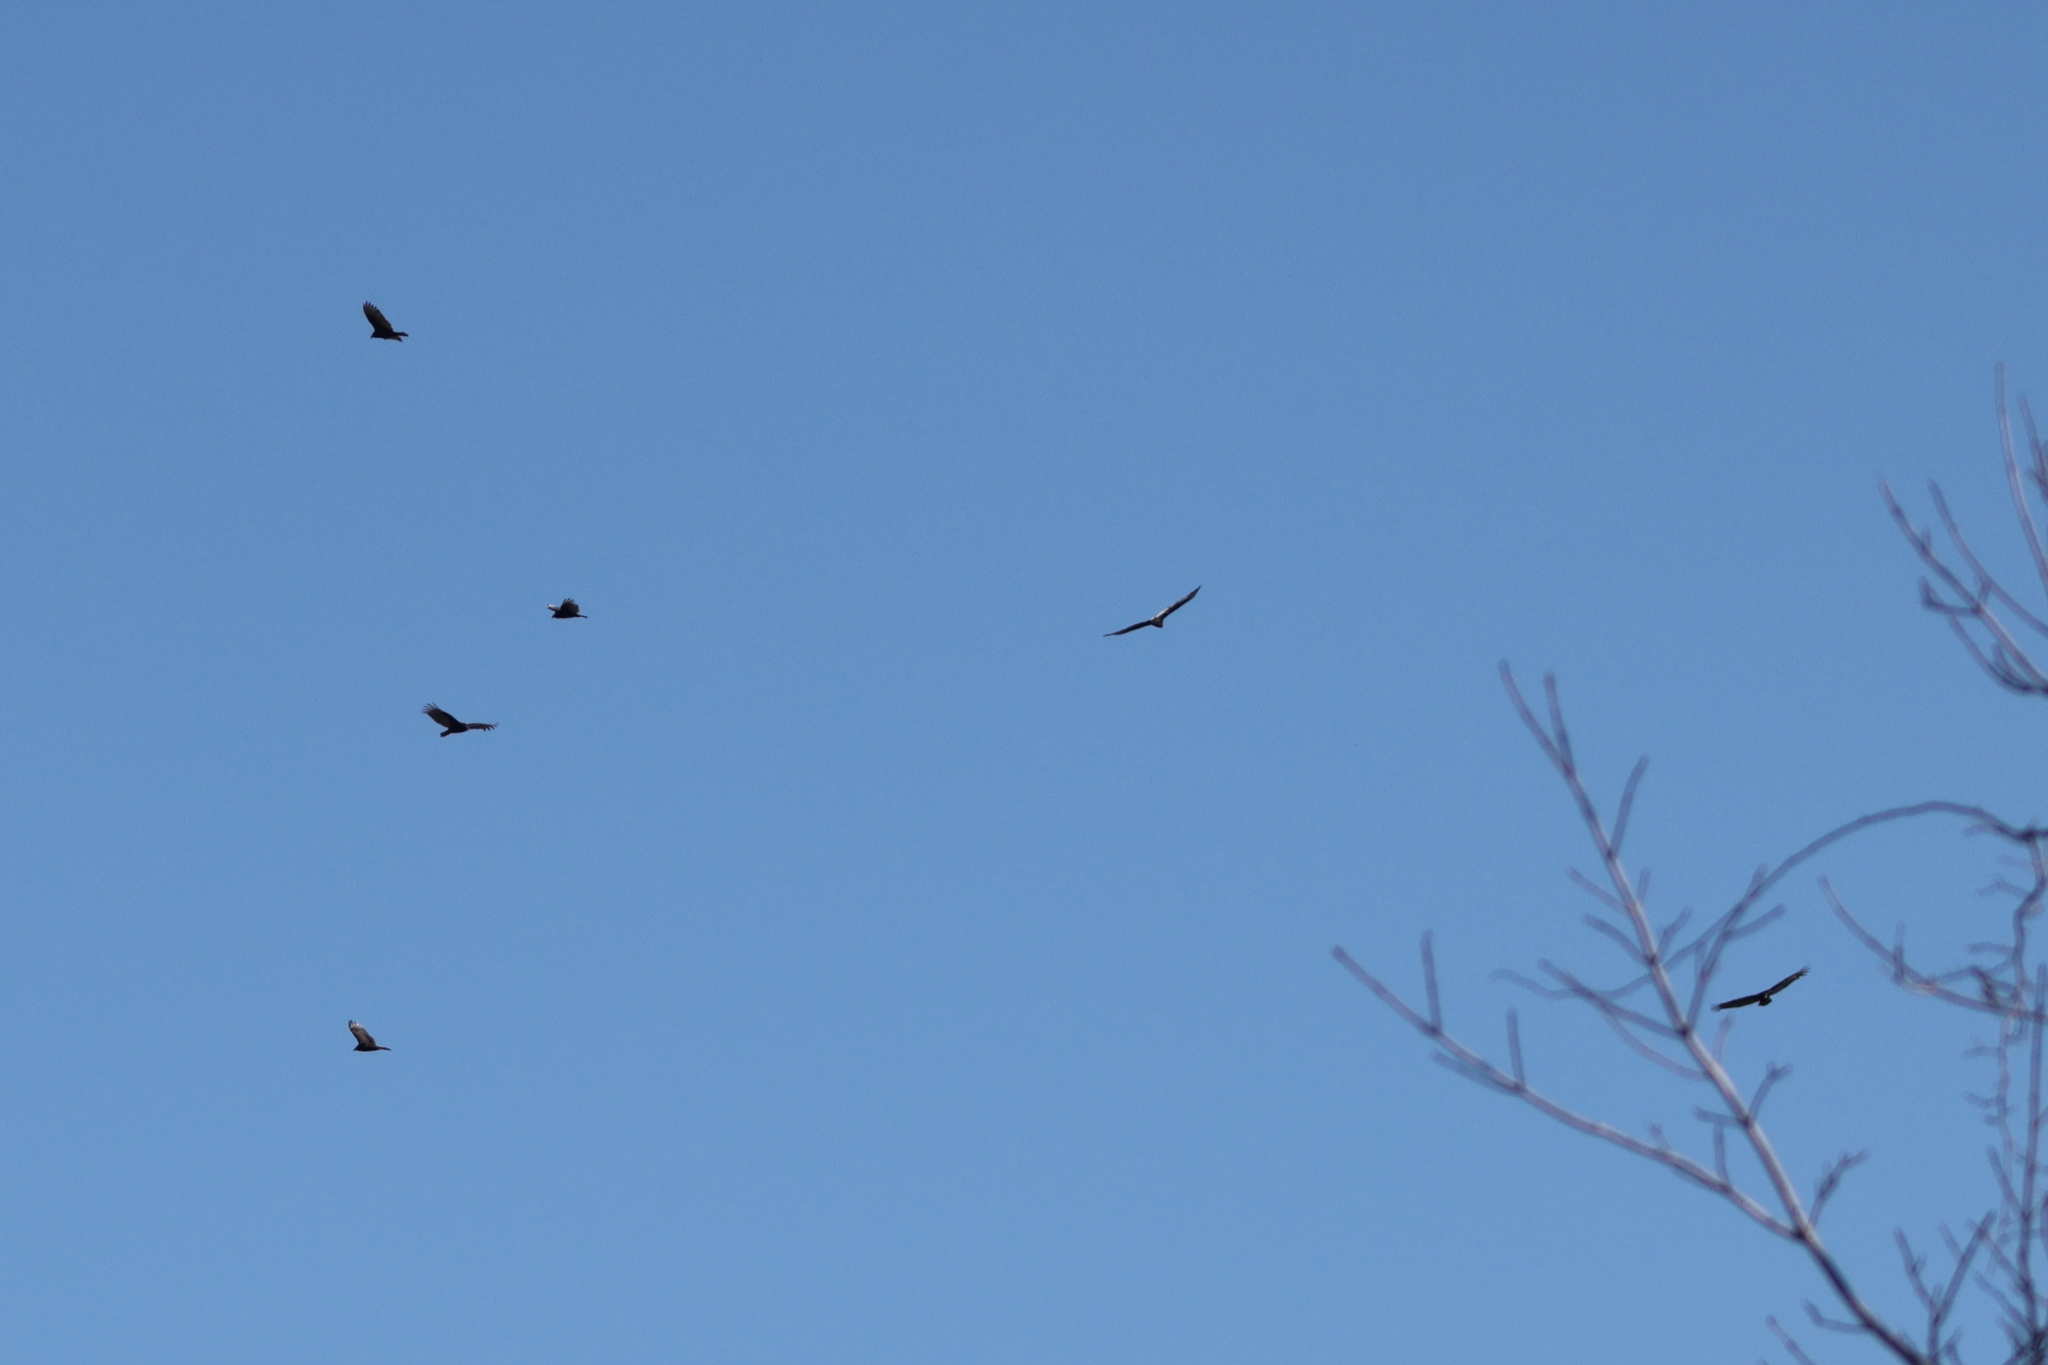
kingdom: Animalia
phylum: Chordata
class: Aves
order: Accipitriformes
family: Cathartidae
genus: Cathartes
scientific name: Cathartes aura
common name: Turkey vulture
